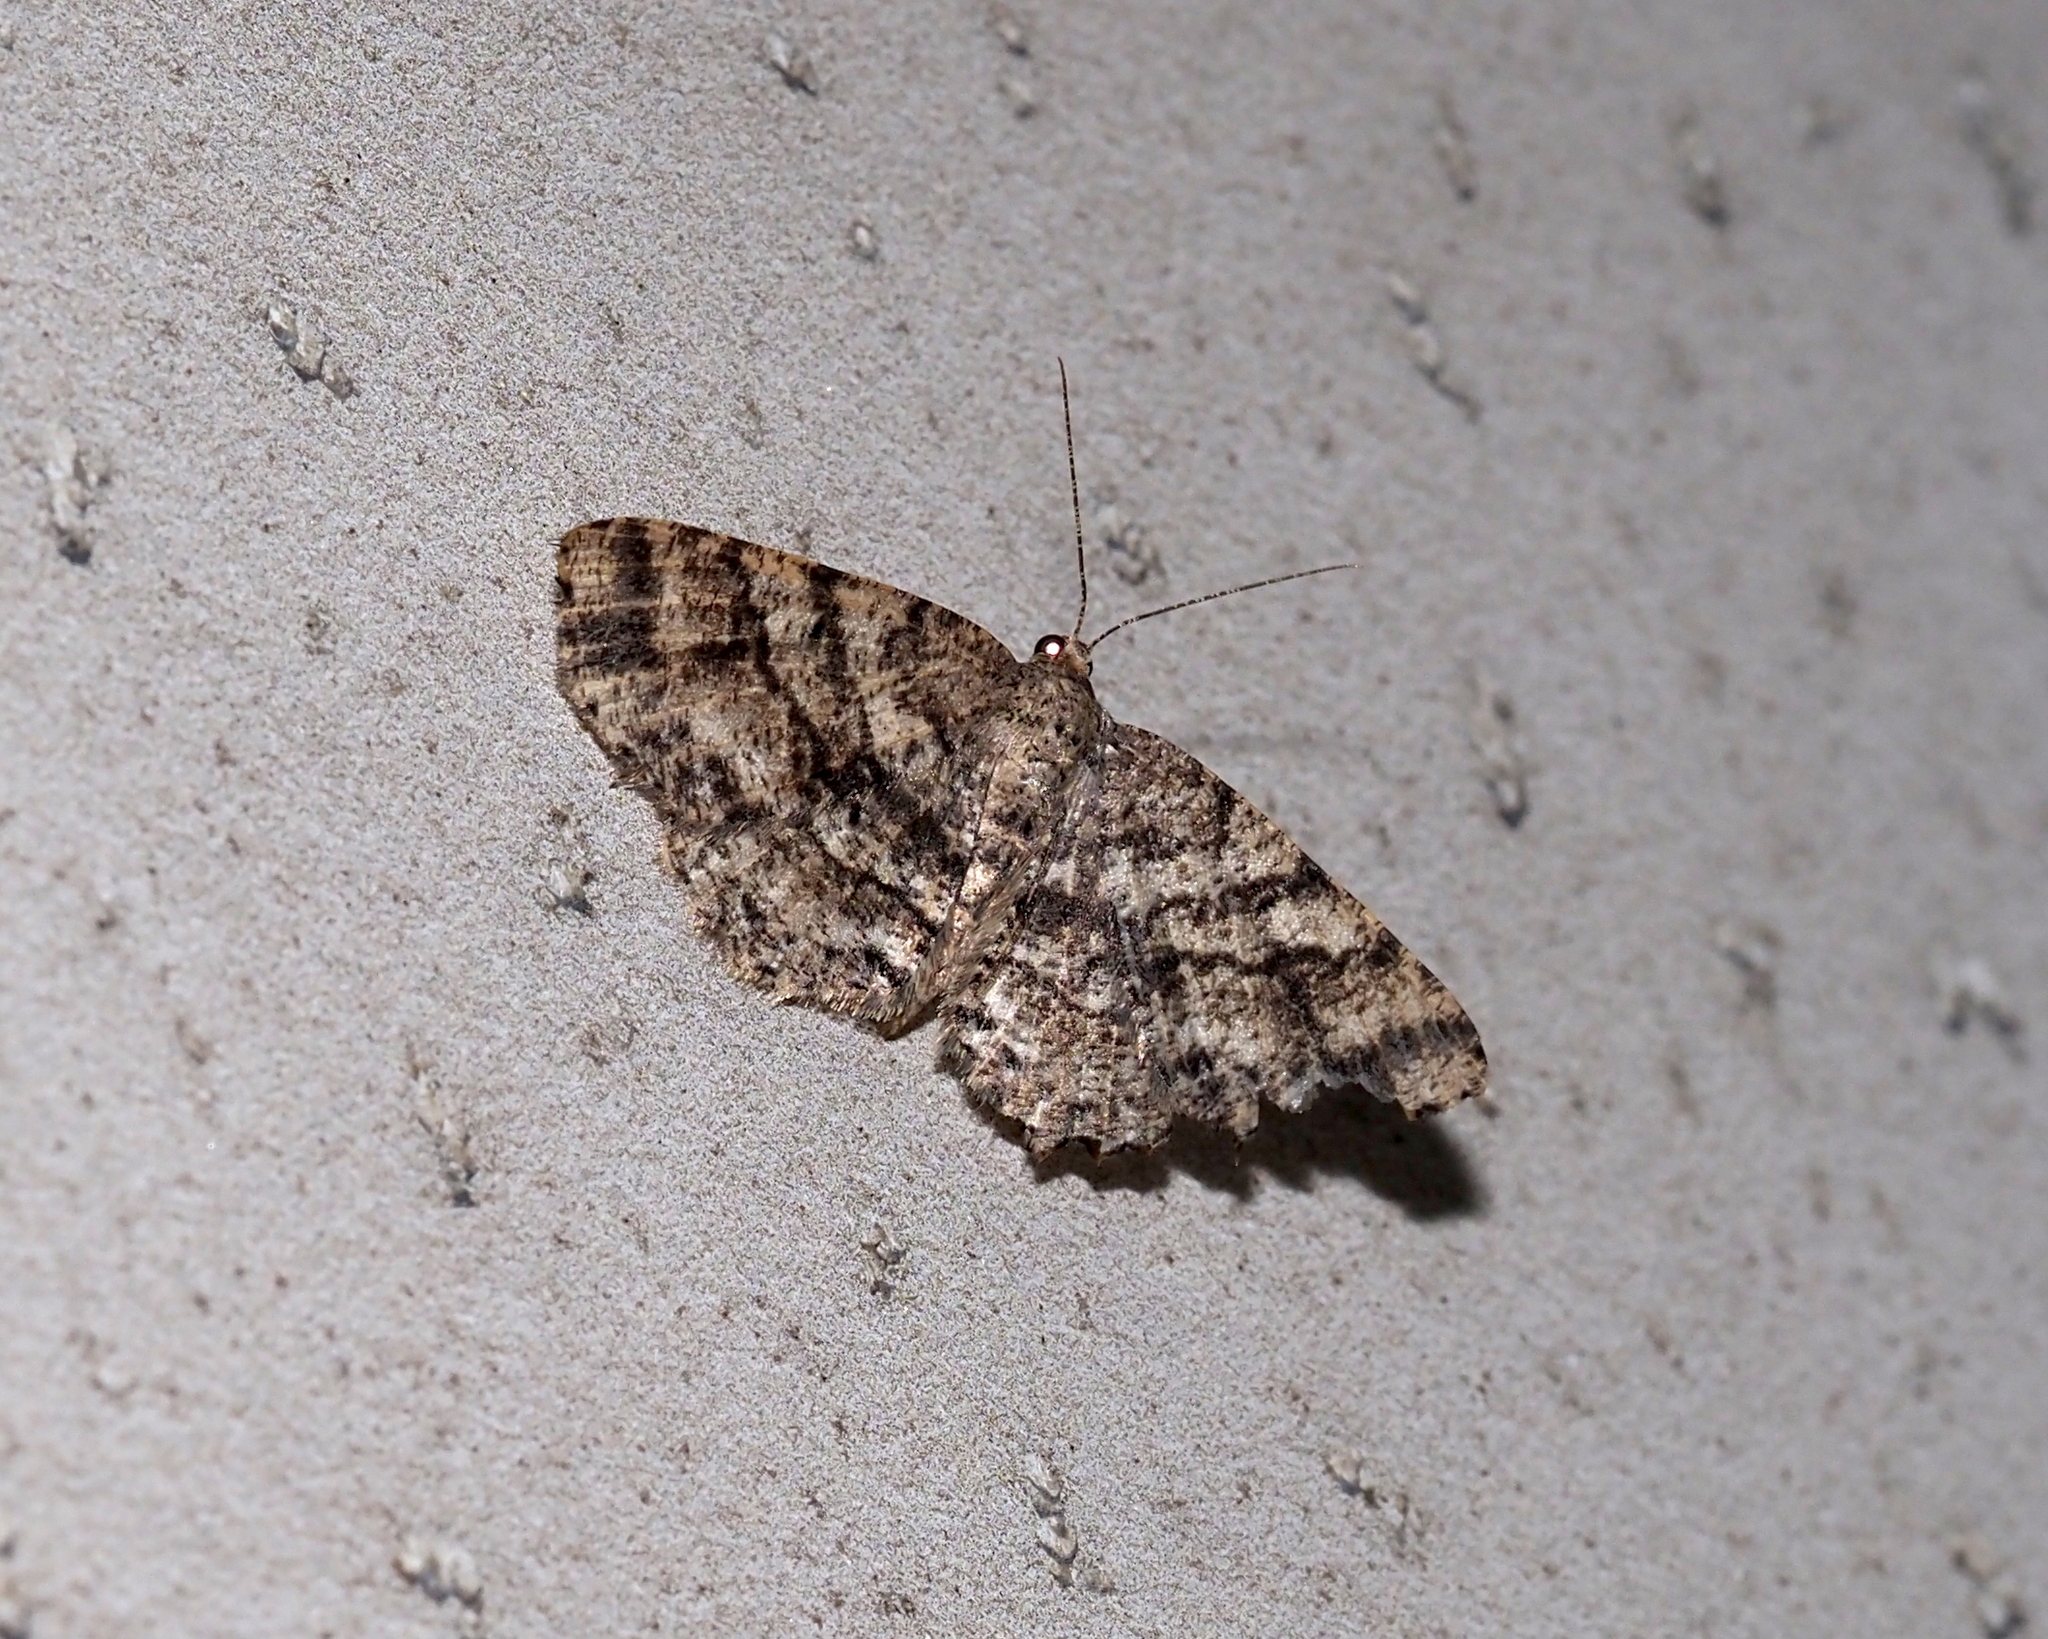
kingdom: Animalia
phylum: Arthropoda
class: Insecta
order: Lepidoptera
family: Geometridae
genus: Melanolophia
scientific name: Melanolophia canadaria
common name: Canadian melanolophia
